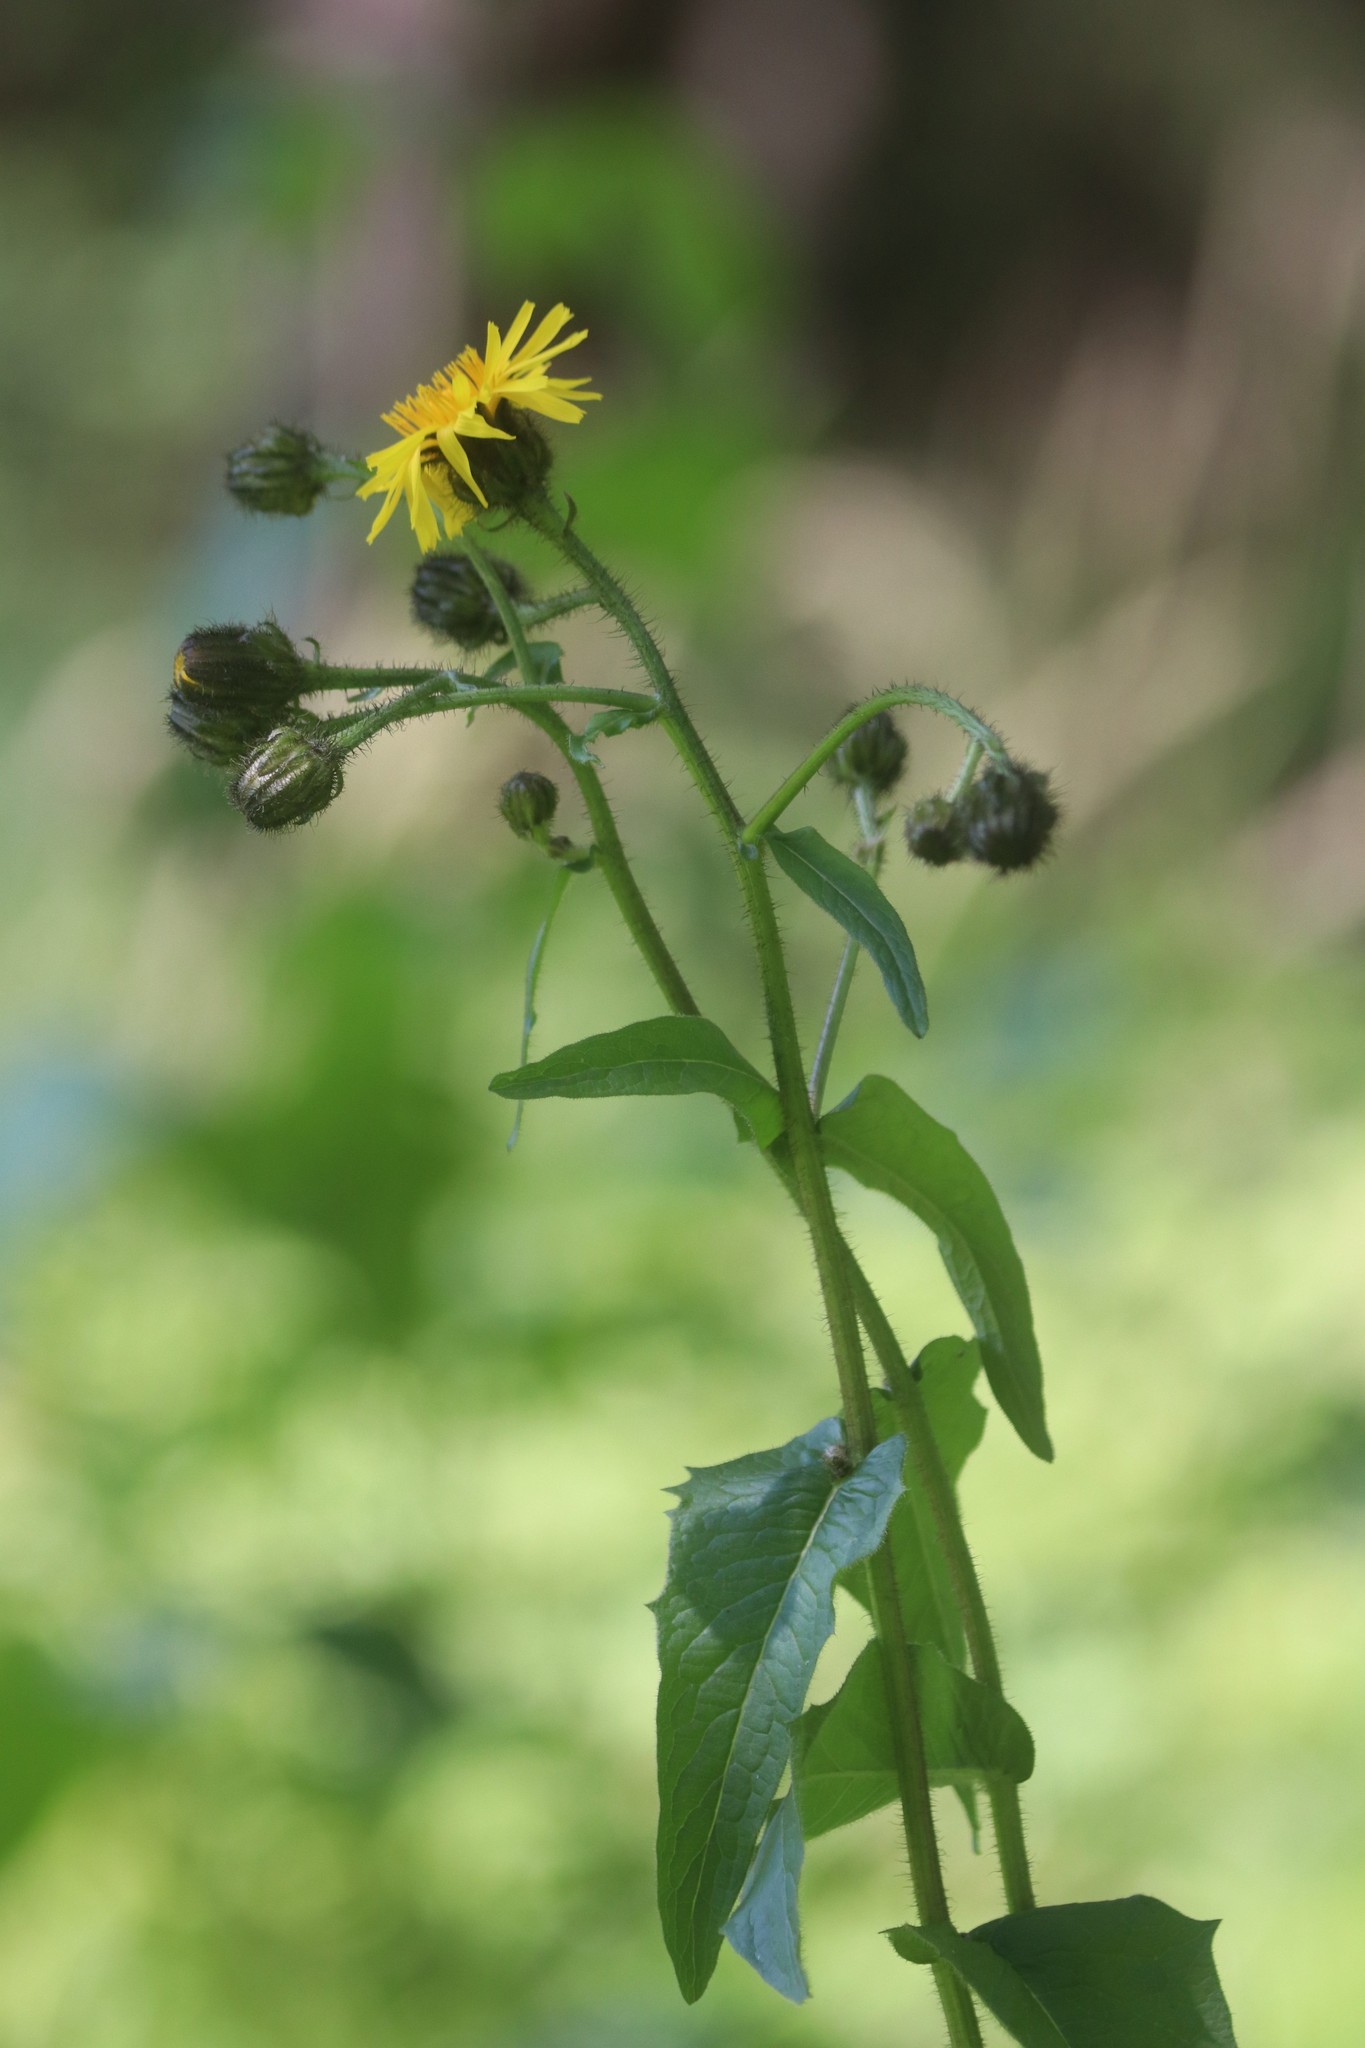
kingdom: Plantae
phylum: Tracheophyta
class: Magnoliopsida
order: Asterales
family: Asteraceae
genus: Crepis
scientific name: Crepis sibirica
